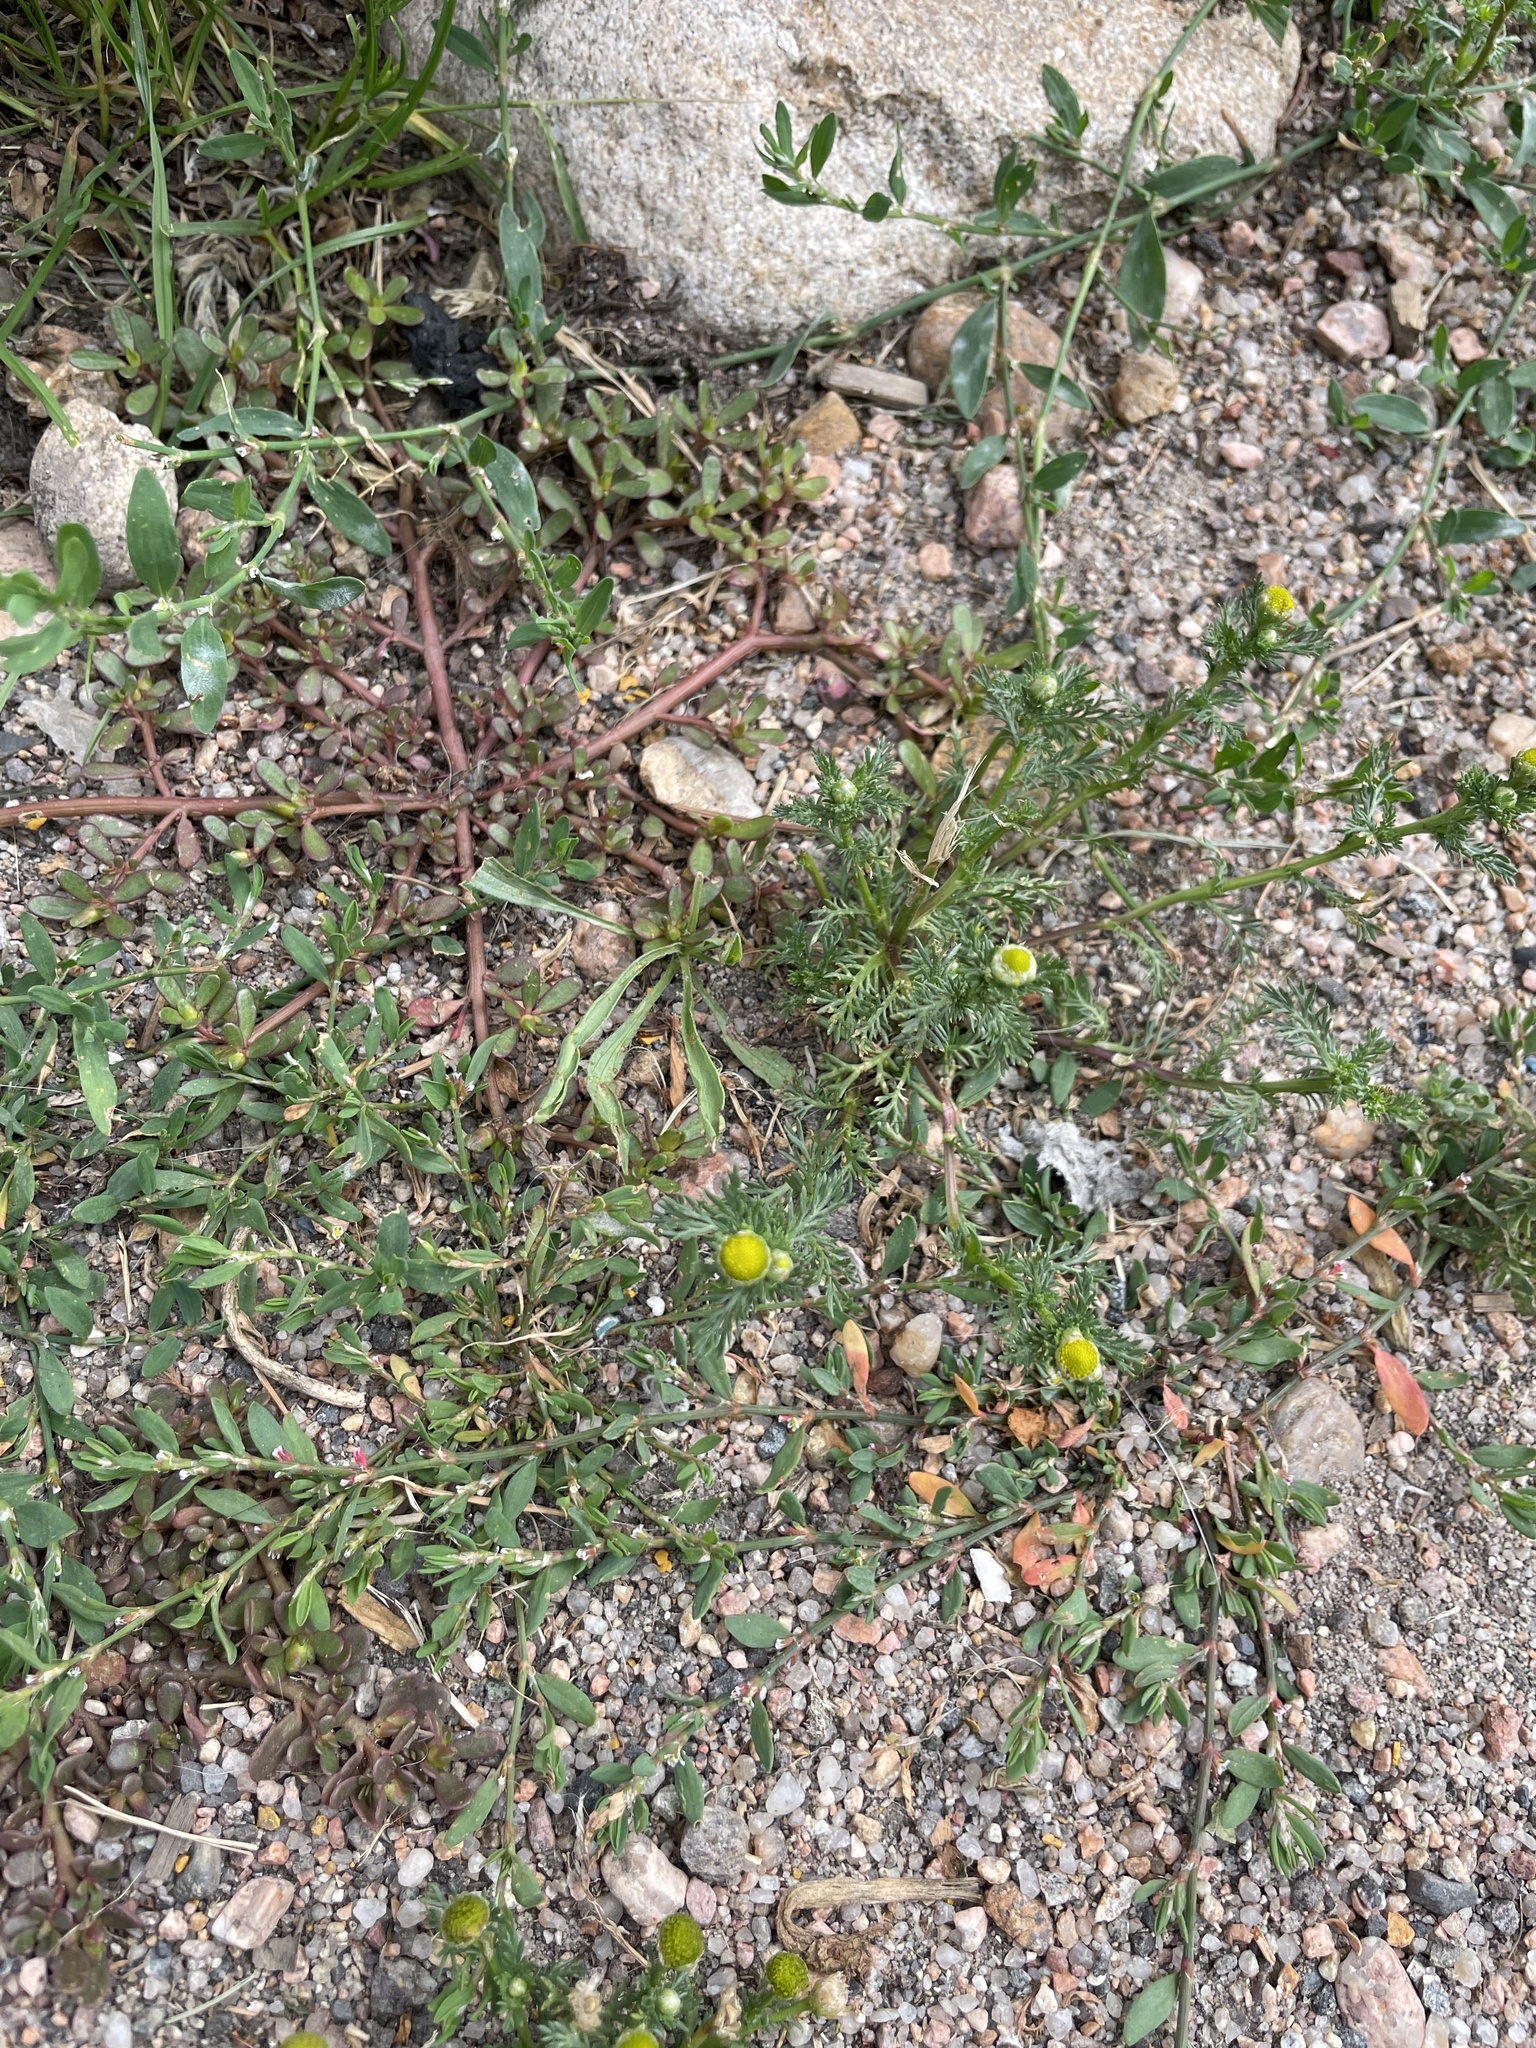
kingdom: Plantae
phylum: Tracheophyta
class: Magnoliopsida
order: Asterales
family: Asteraceae
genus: Matricaria
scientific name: Matricaria discoidea
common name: Disc mayweed
